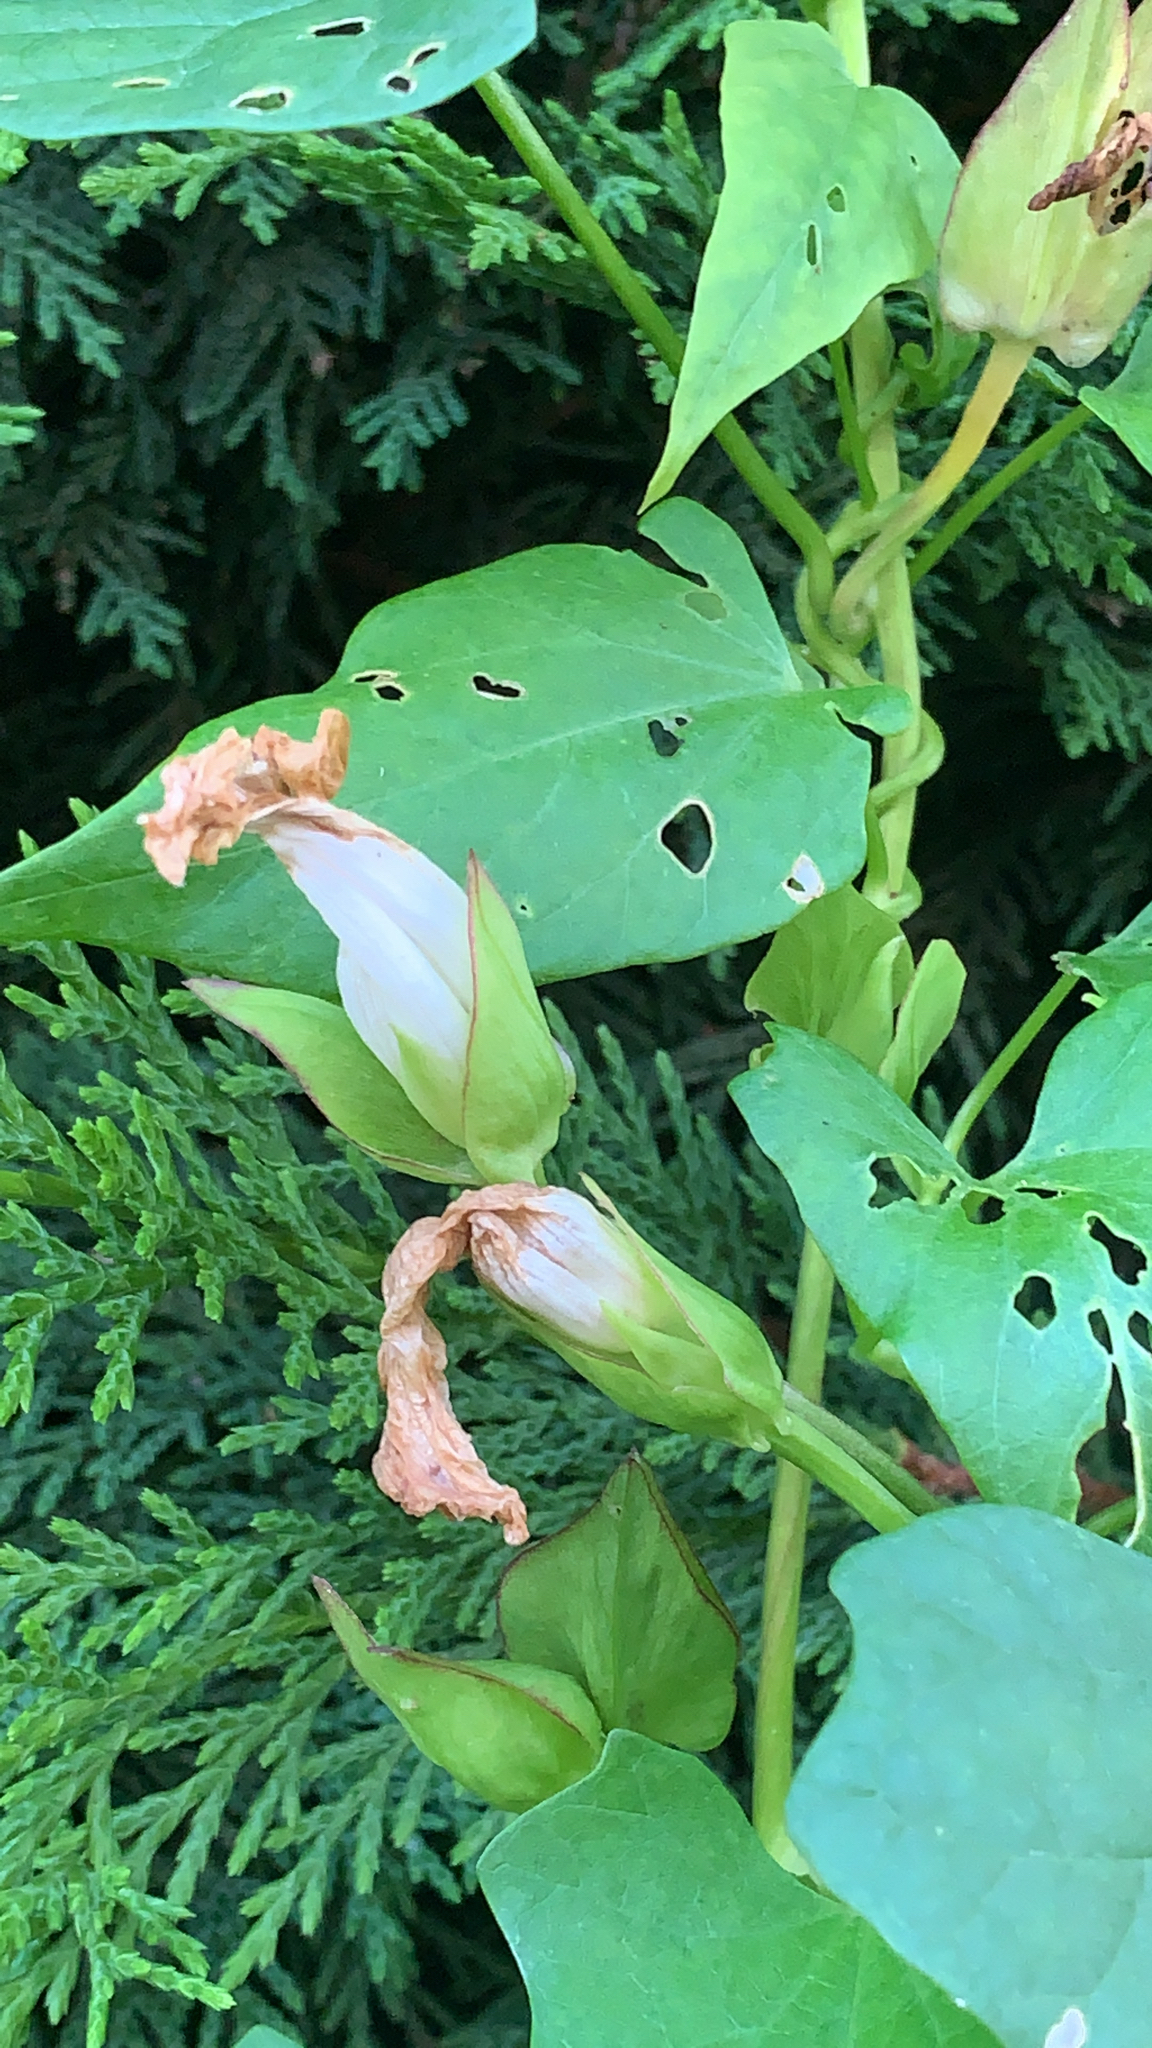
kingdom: Plantae
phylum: Tracheophyta
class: Magnoliopsida
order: Solanales
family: Convolvulaceae
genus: Calystegia
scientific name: Calystegia sepium
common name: Hedge bindweed
